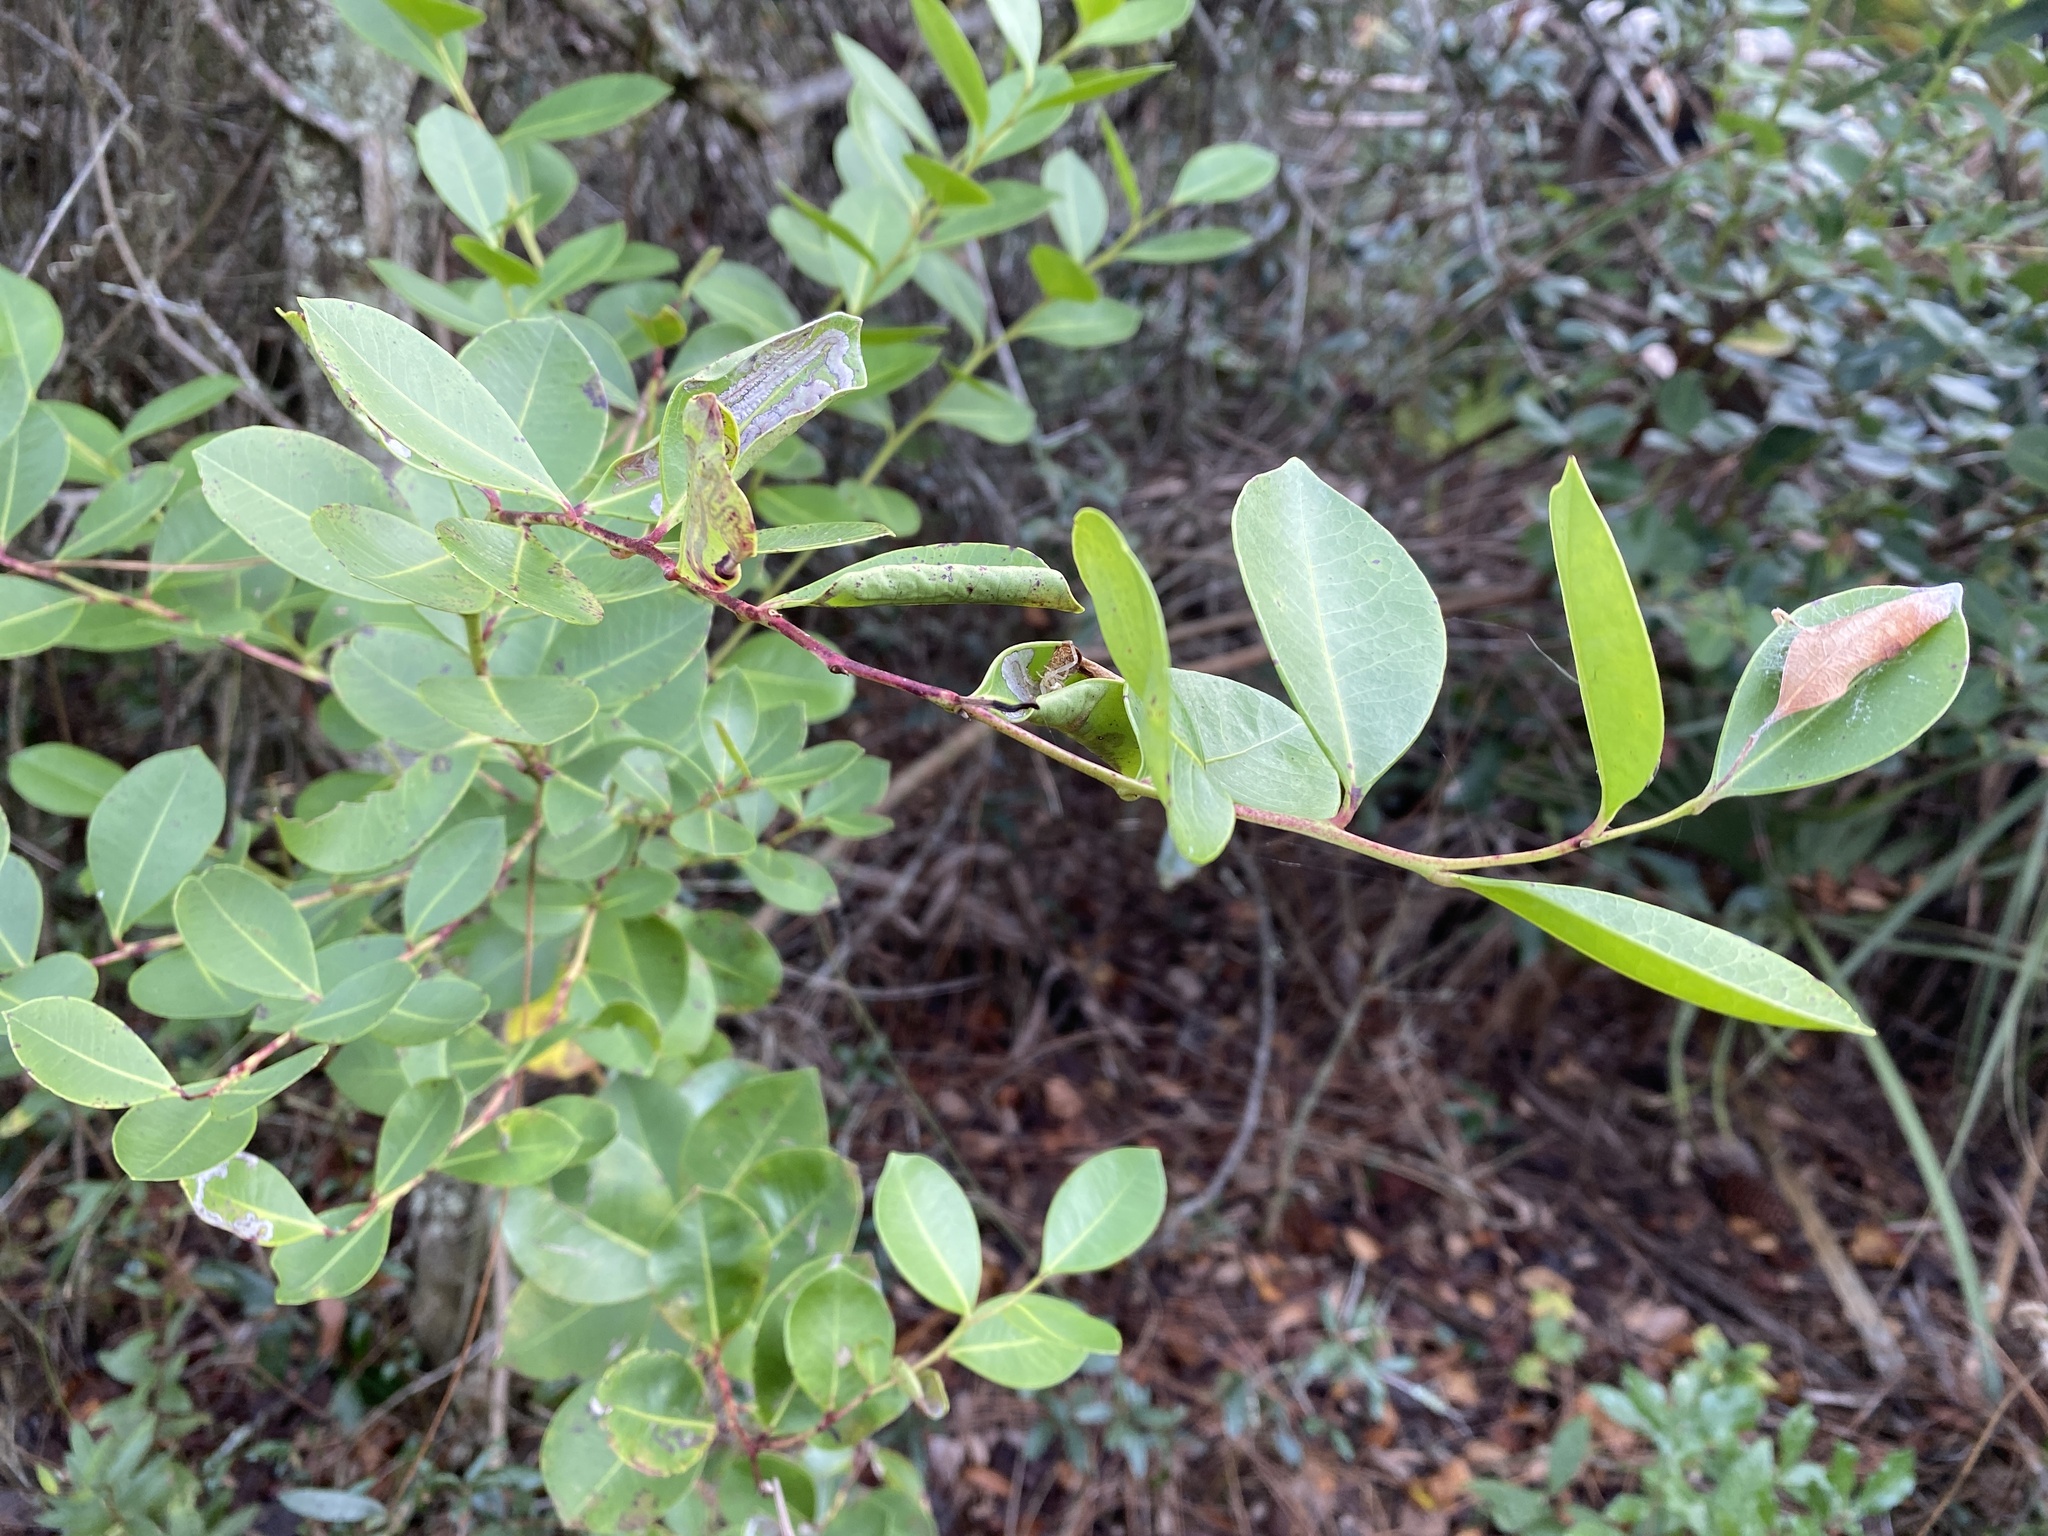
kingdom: Plantae
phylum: Tracheophyta
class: Magnoliopsida
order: Ericales
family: Ericaceae
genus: Lyonia
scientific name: Lyonia lucida
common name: Fetterbush
